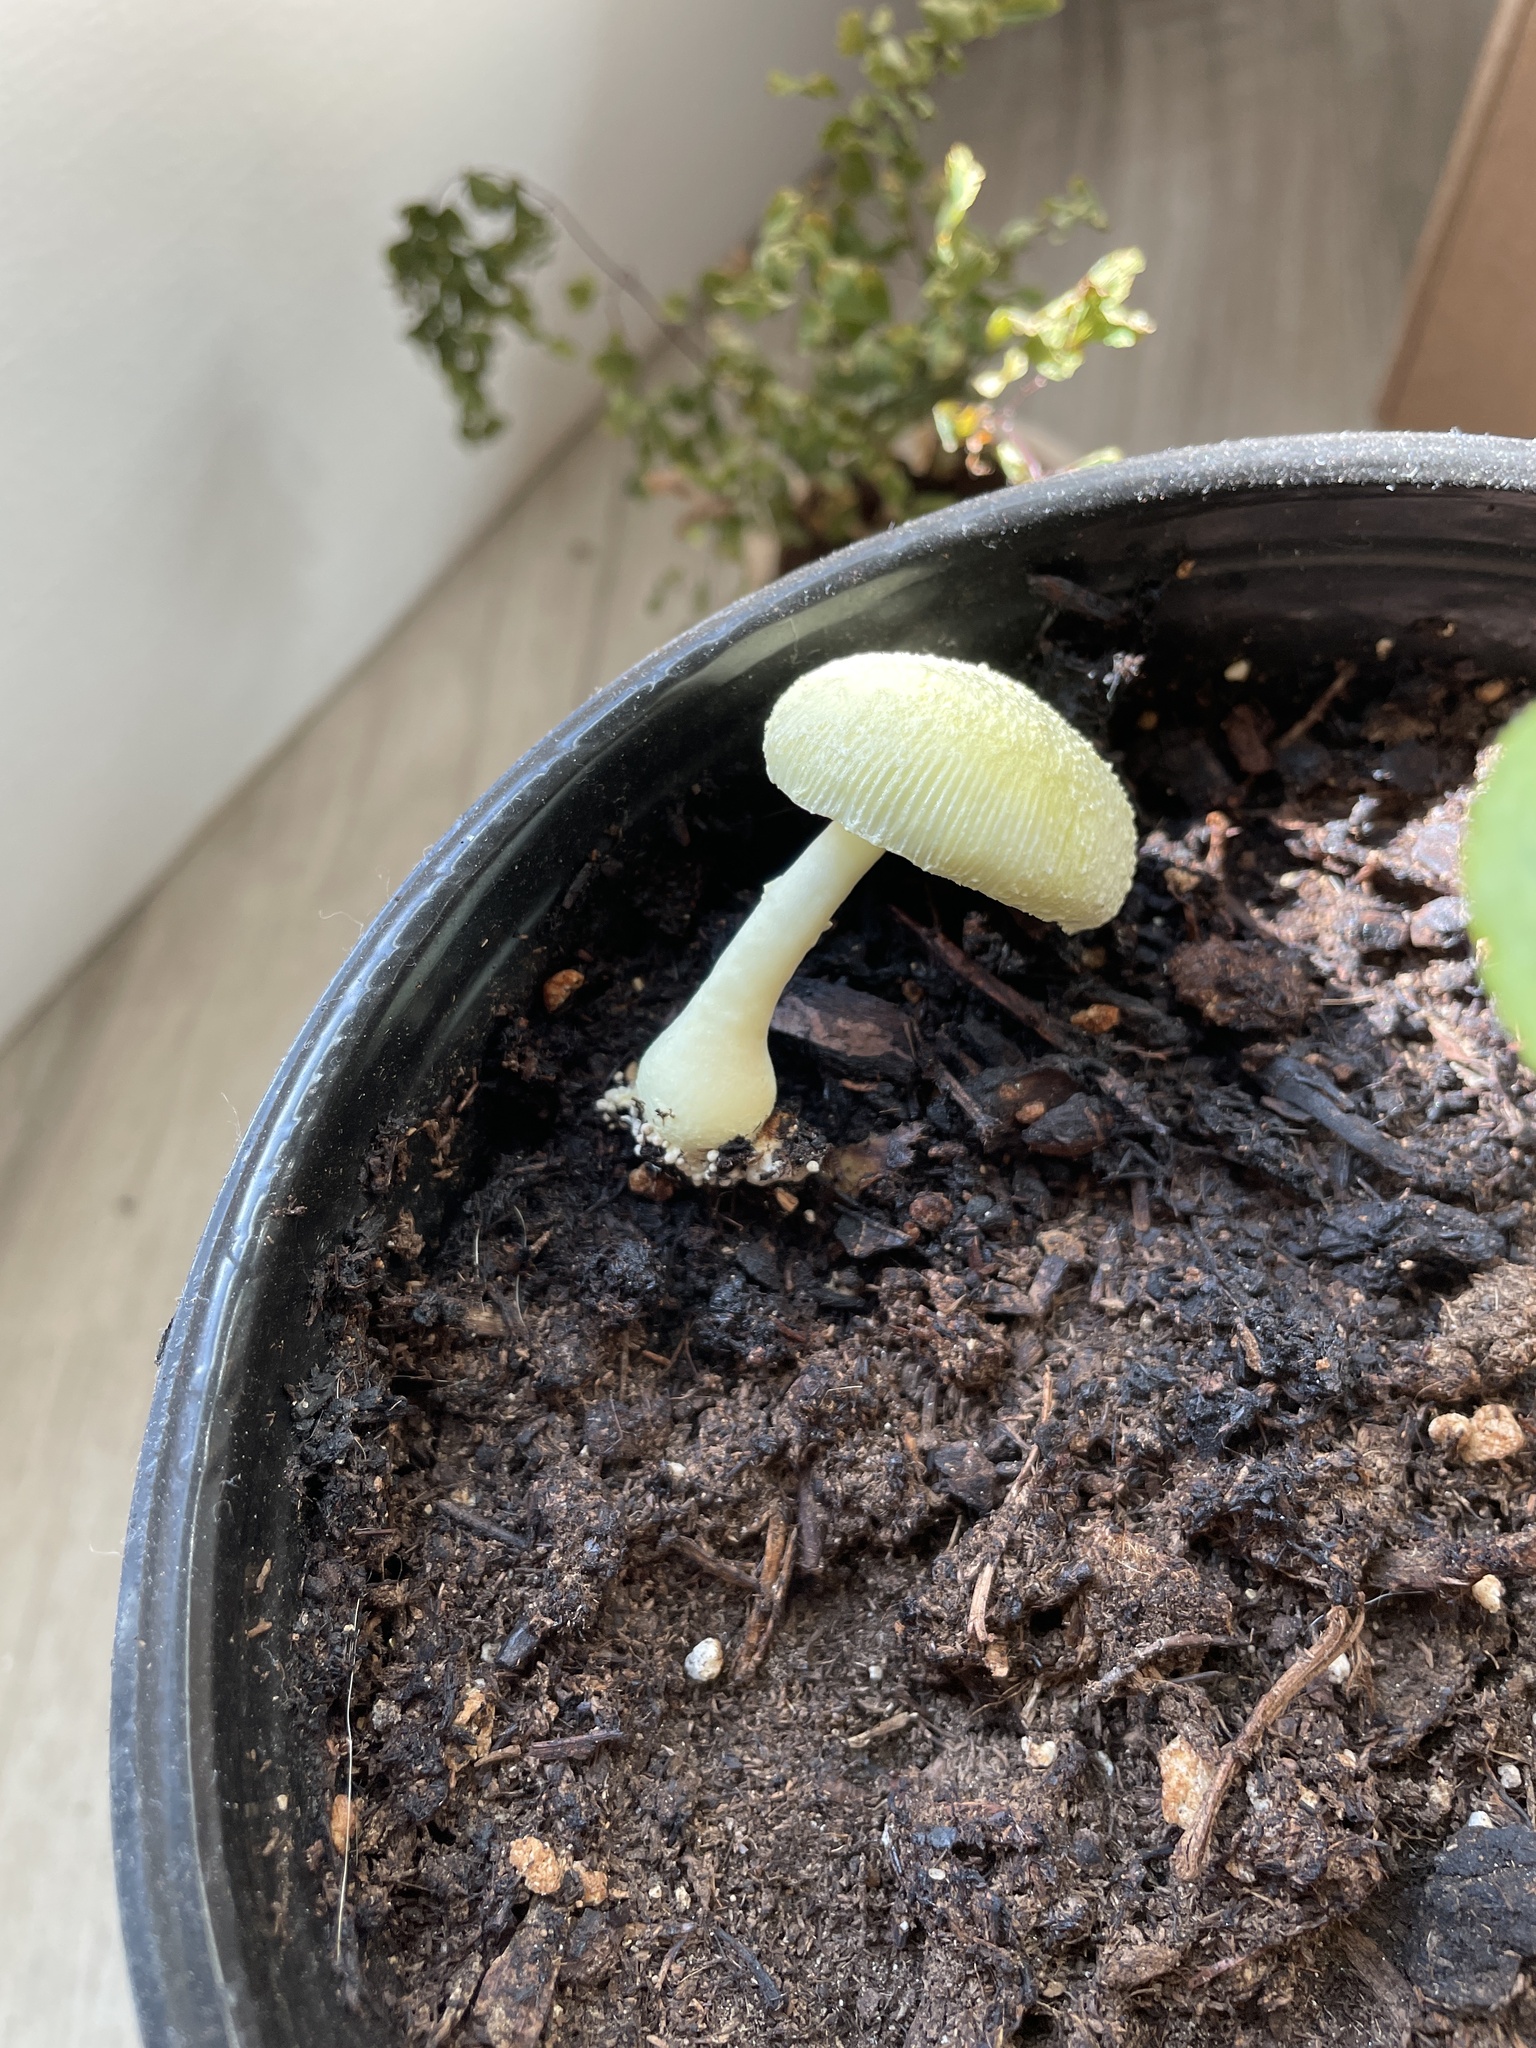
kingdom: Fungi
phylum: Basidiomycota
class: Agaricomycetes
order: Agaricales
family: Agaricaceae
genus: Leucocoprinus
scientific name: Leucocoprinus birnbaumii
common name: Plantpot dapperling
